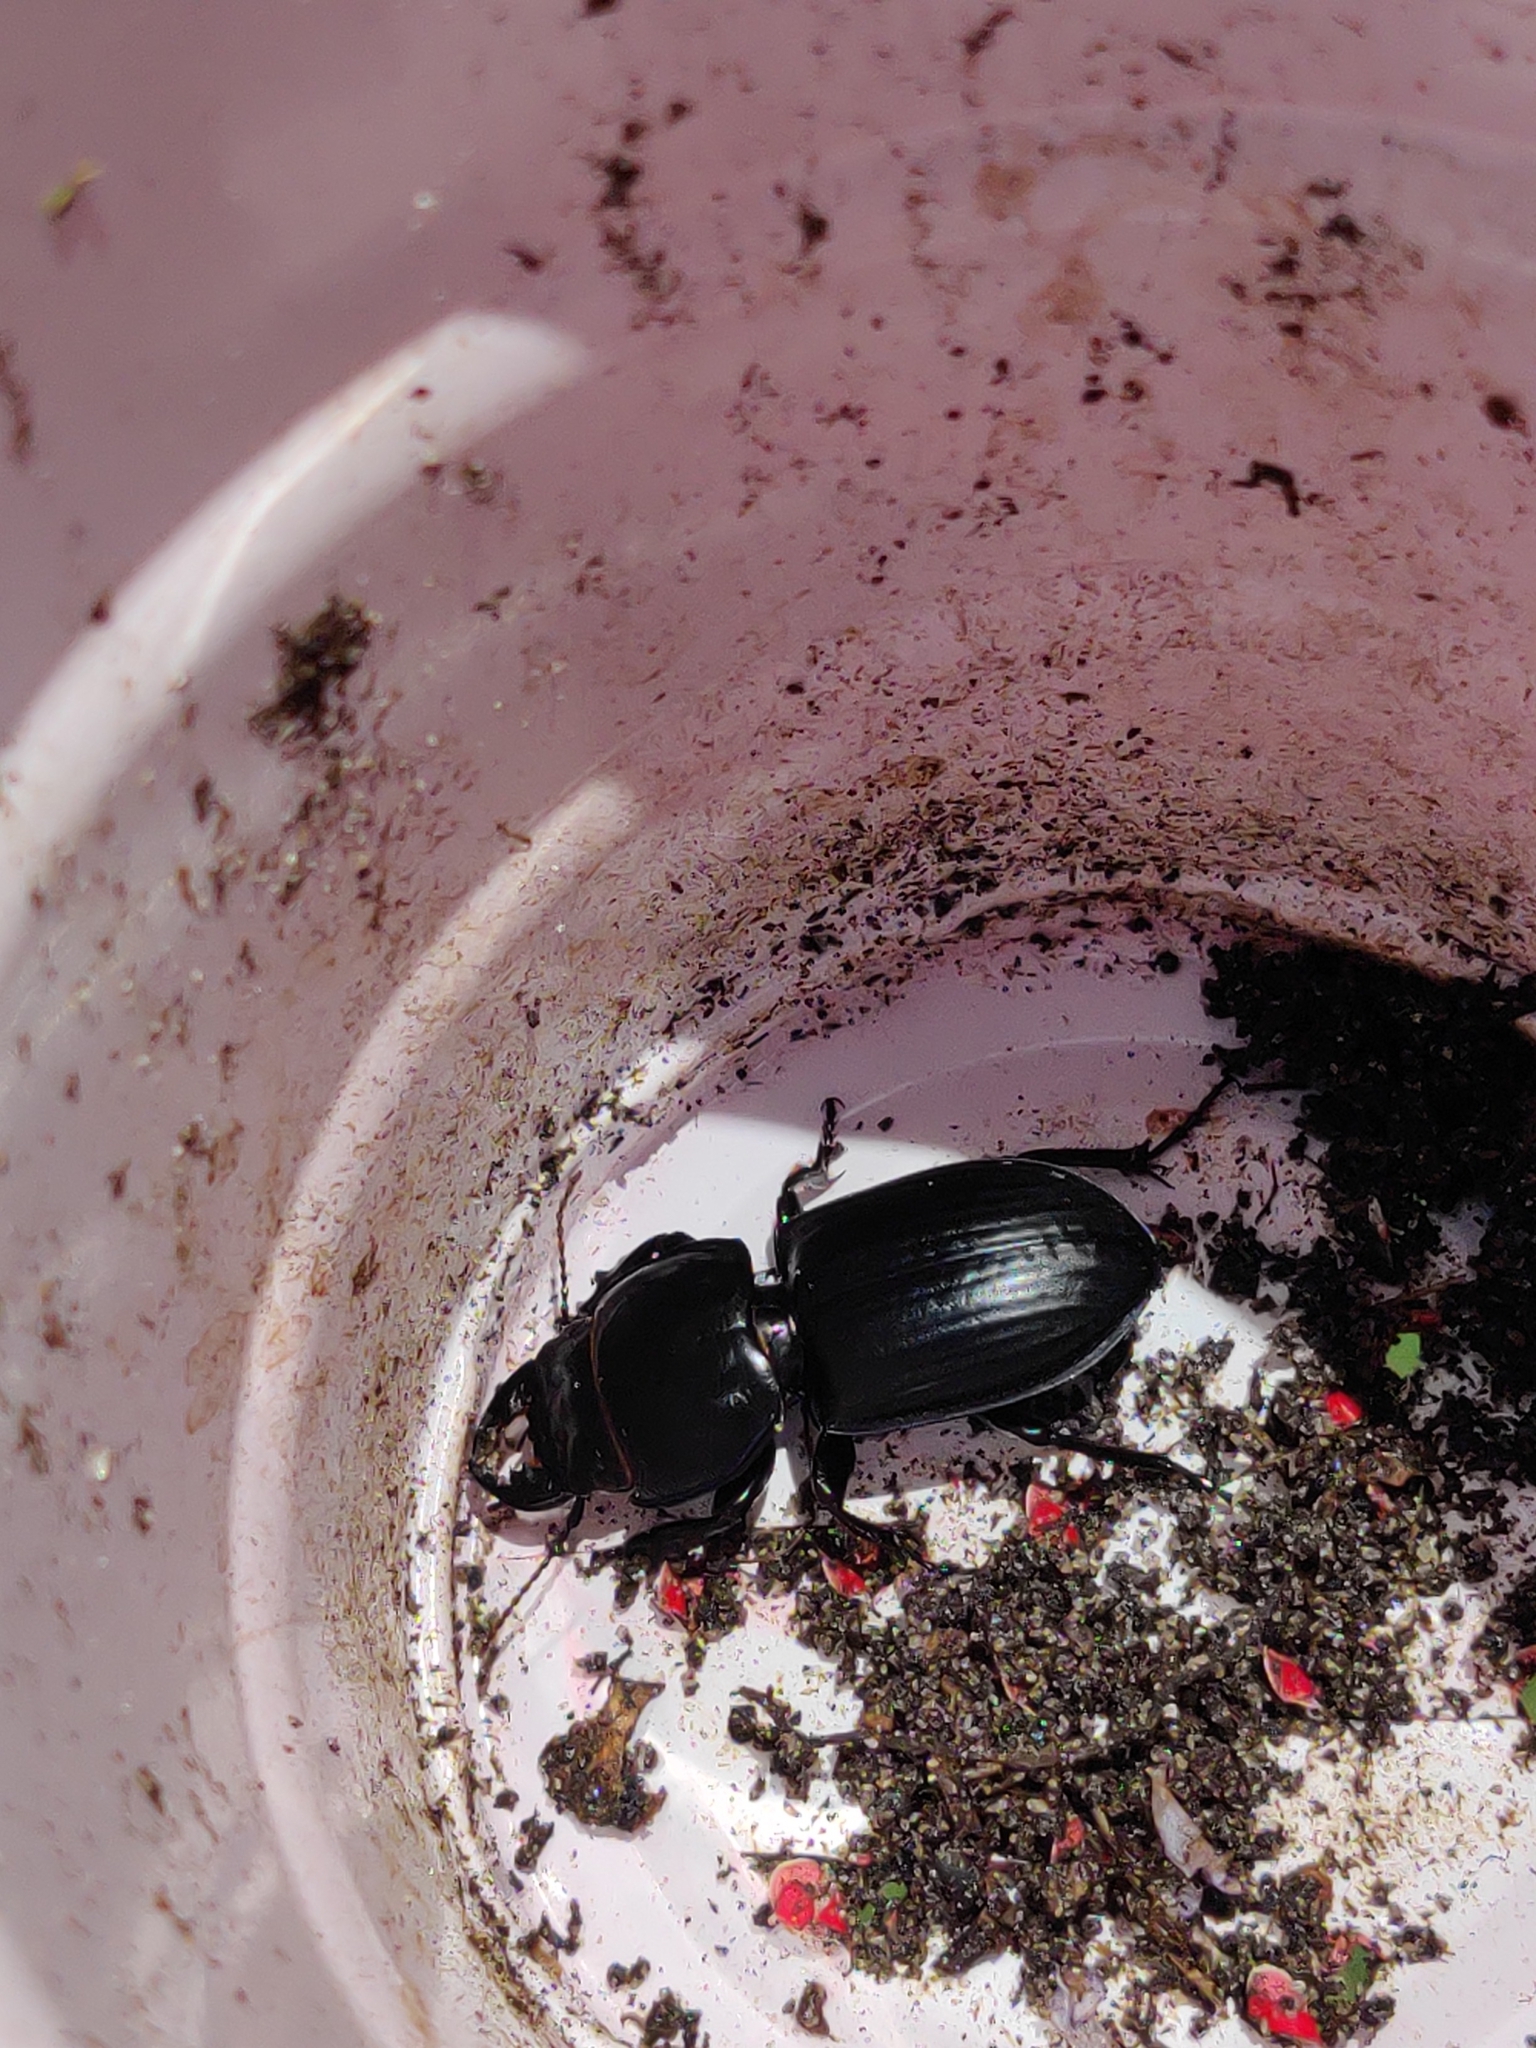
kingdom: Animalia
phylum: Arthropoda
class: Insecta
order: Coleoptera
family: Carabidae
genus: Pasimachus
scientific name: Pasimachus sublaevis
